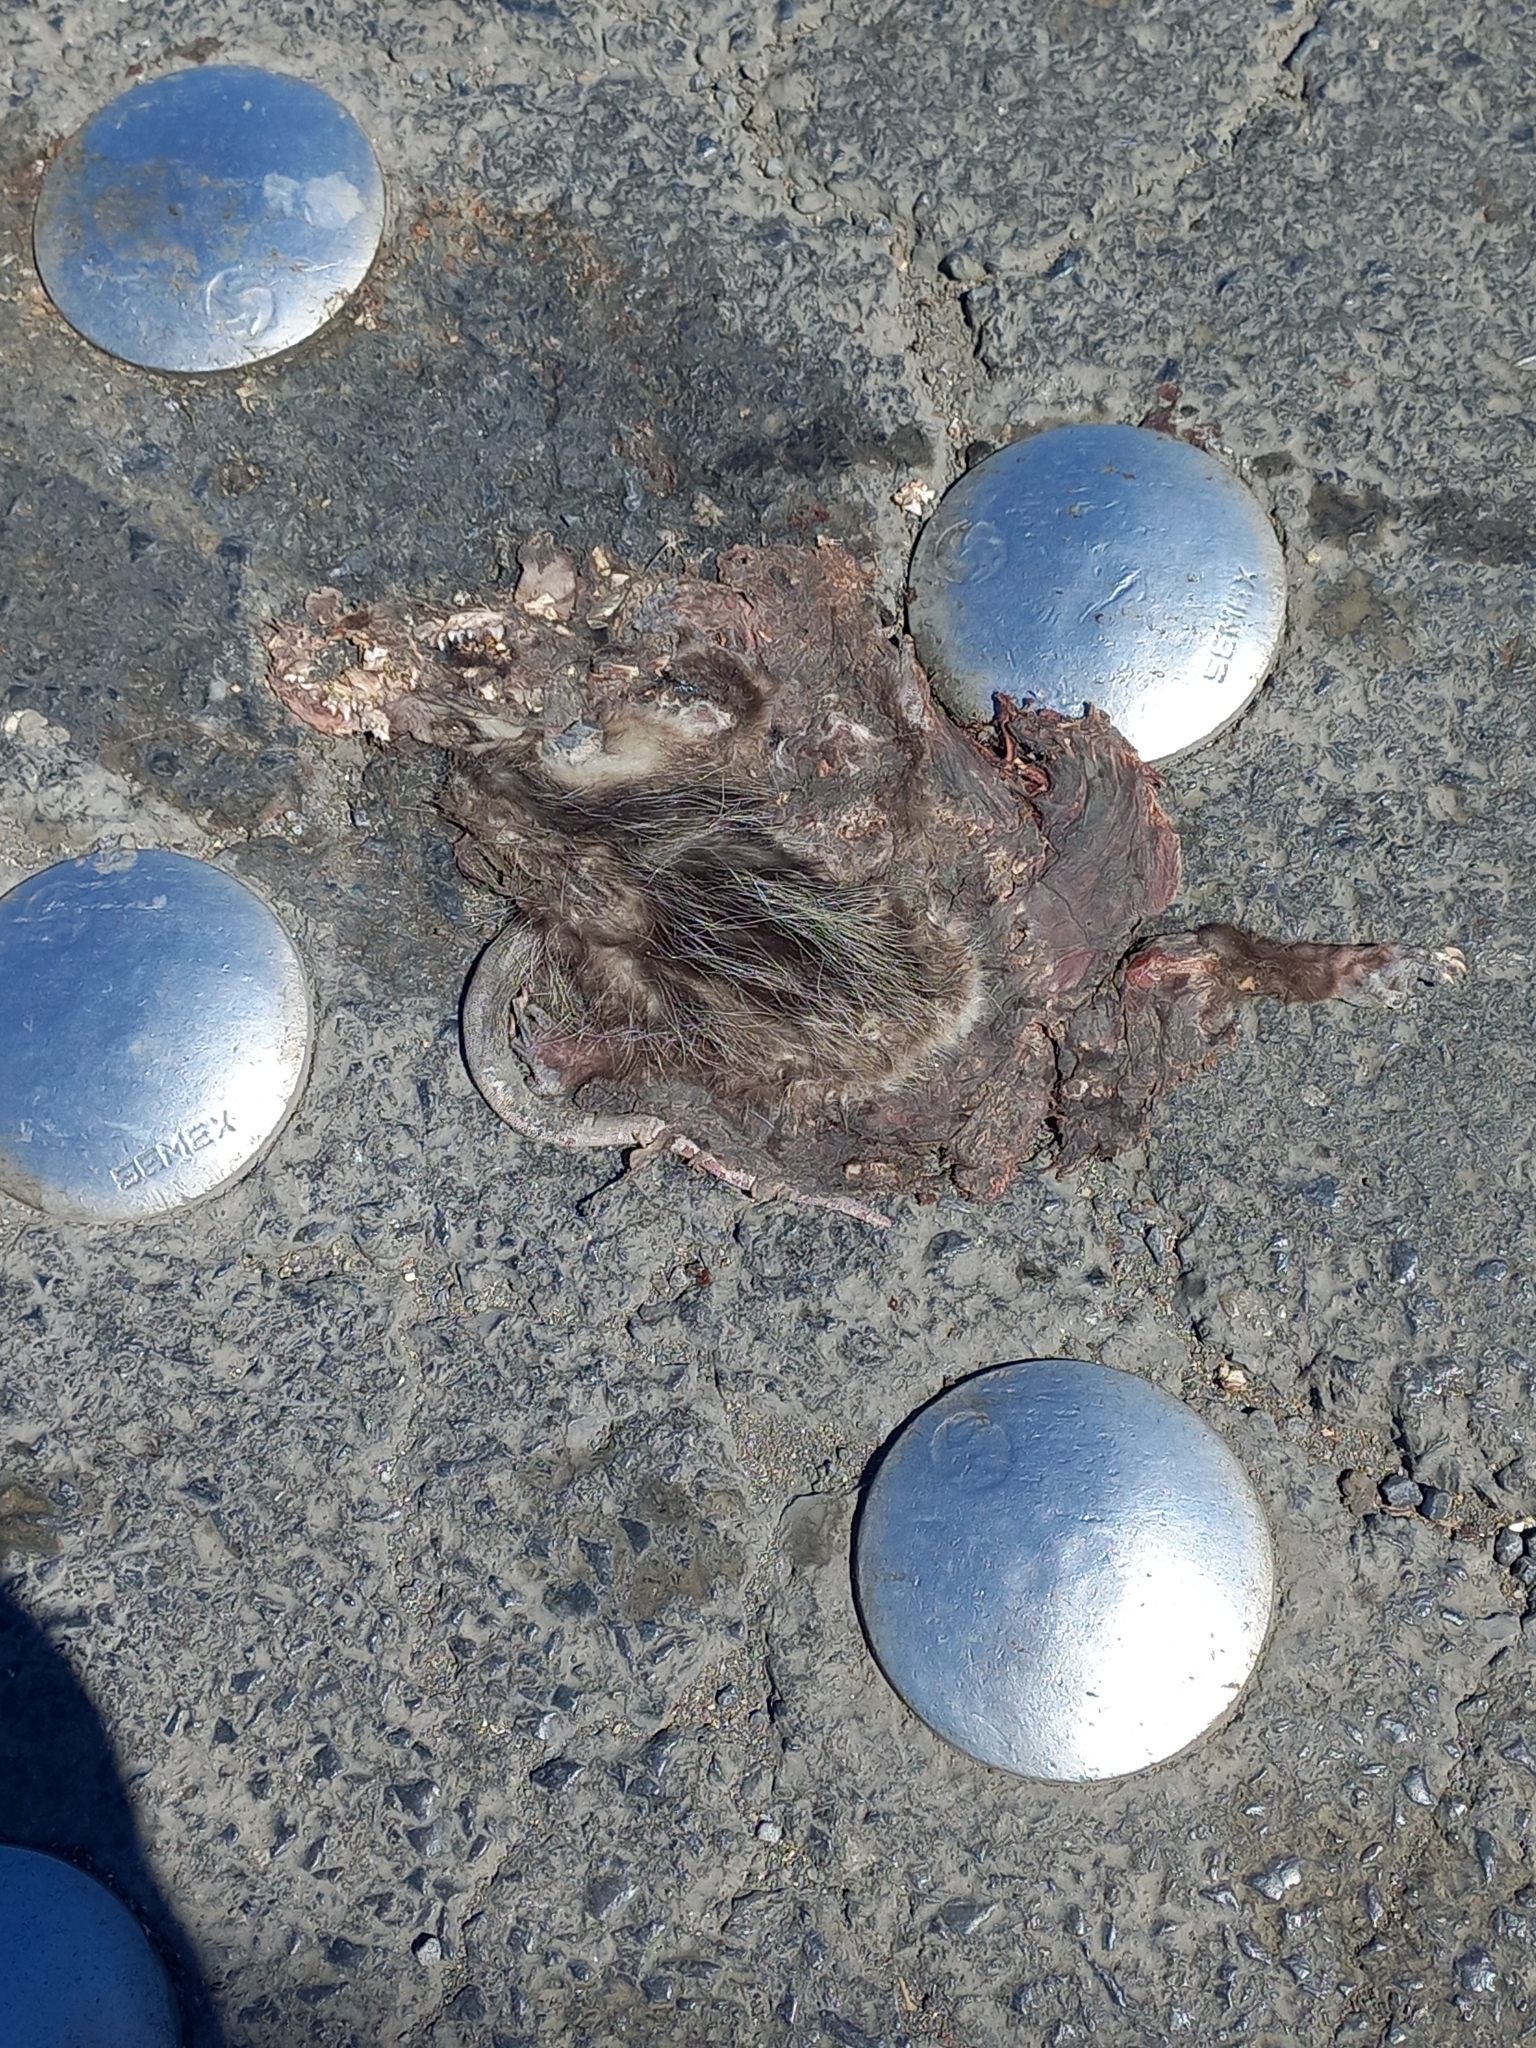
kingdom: Animalia
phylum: Chordata
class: Mammalia
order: Didelphimorphia
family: Didelphidae
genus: Didelphis
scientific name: Didelphis virginiana
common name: Virginia opossum
